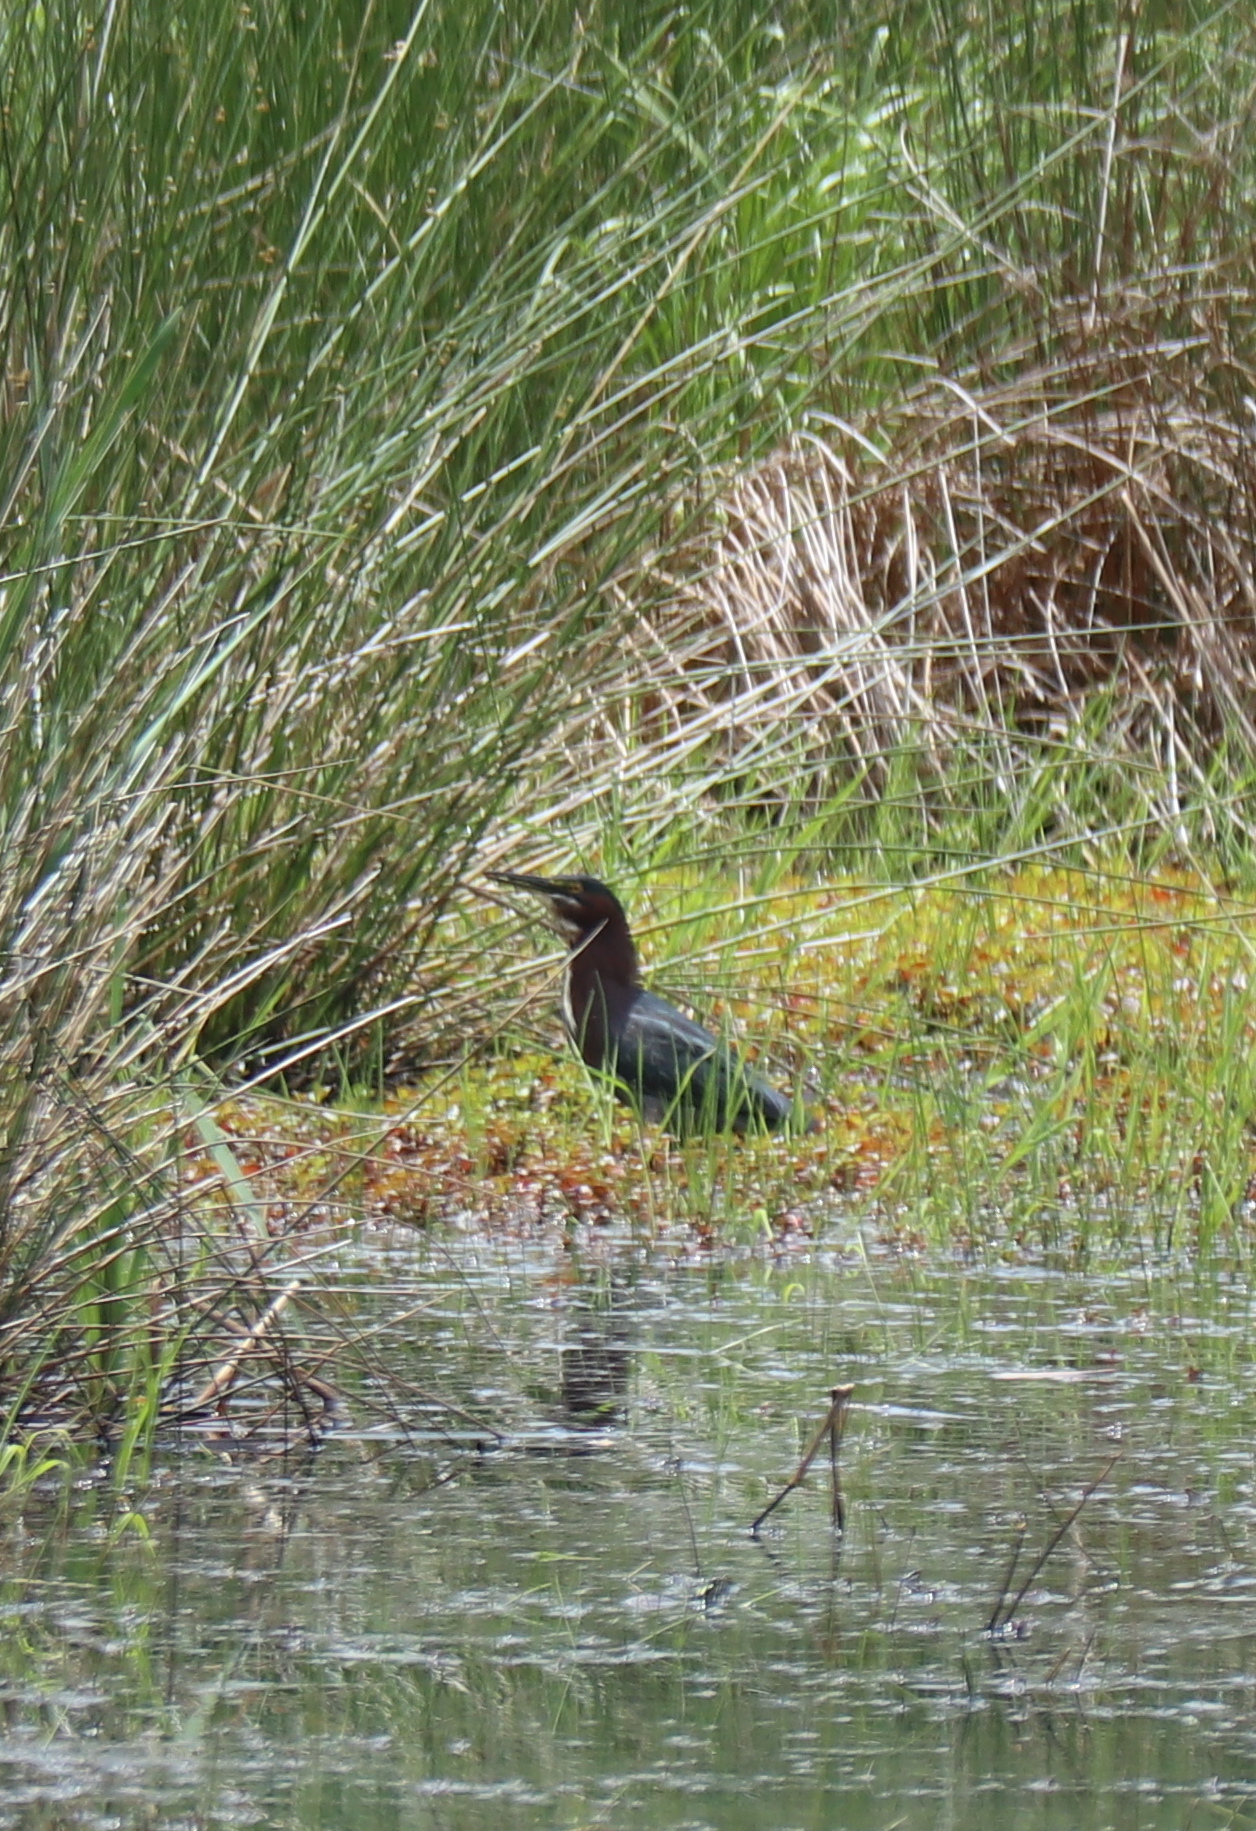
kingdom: Animalia
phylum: Chordata
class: Aves
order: Pelecaniformes
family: Ardeidae
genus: Butorides
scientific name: Butorides virescens
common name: Green heron
